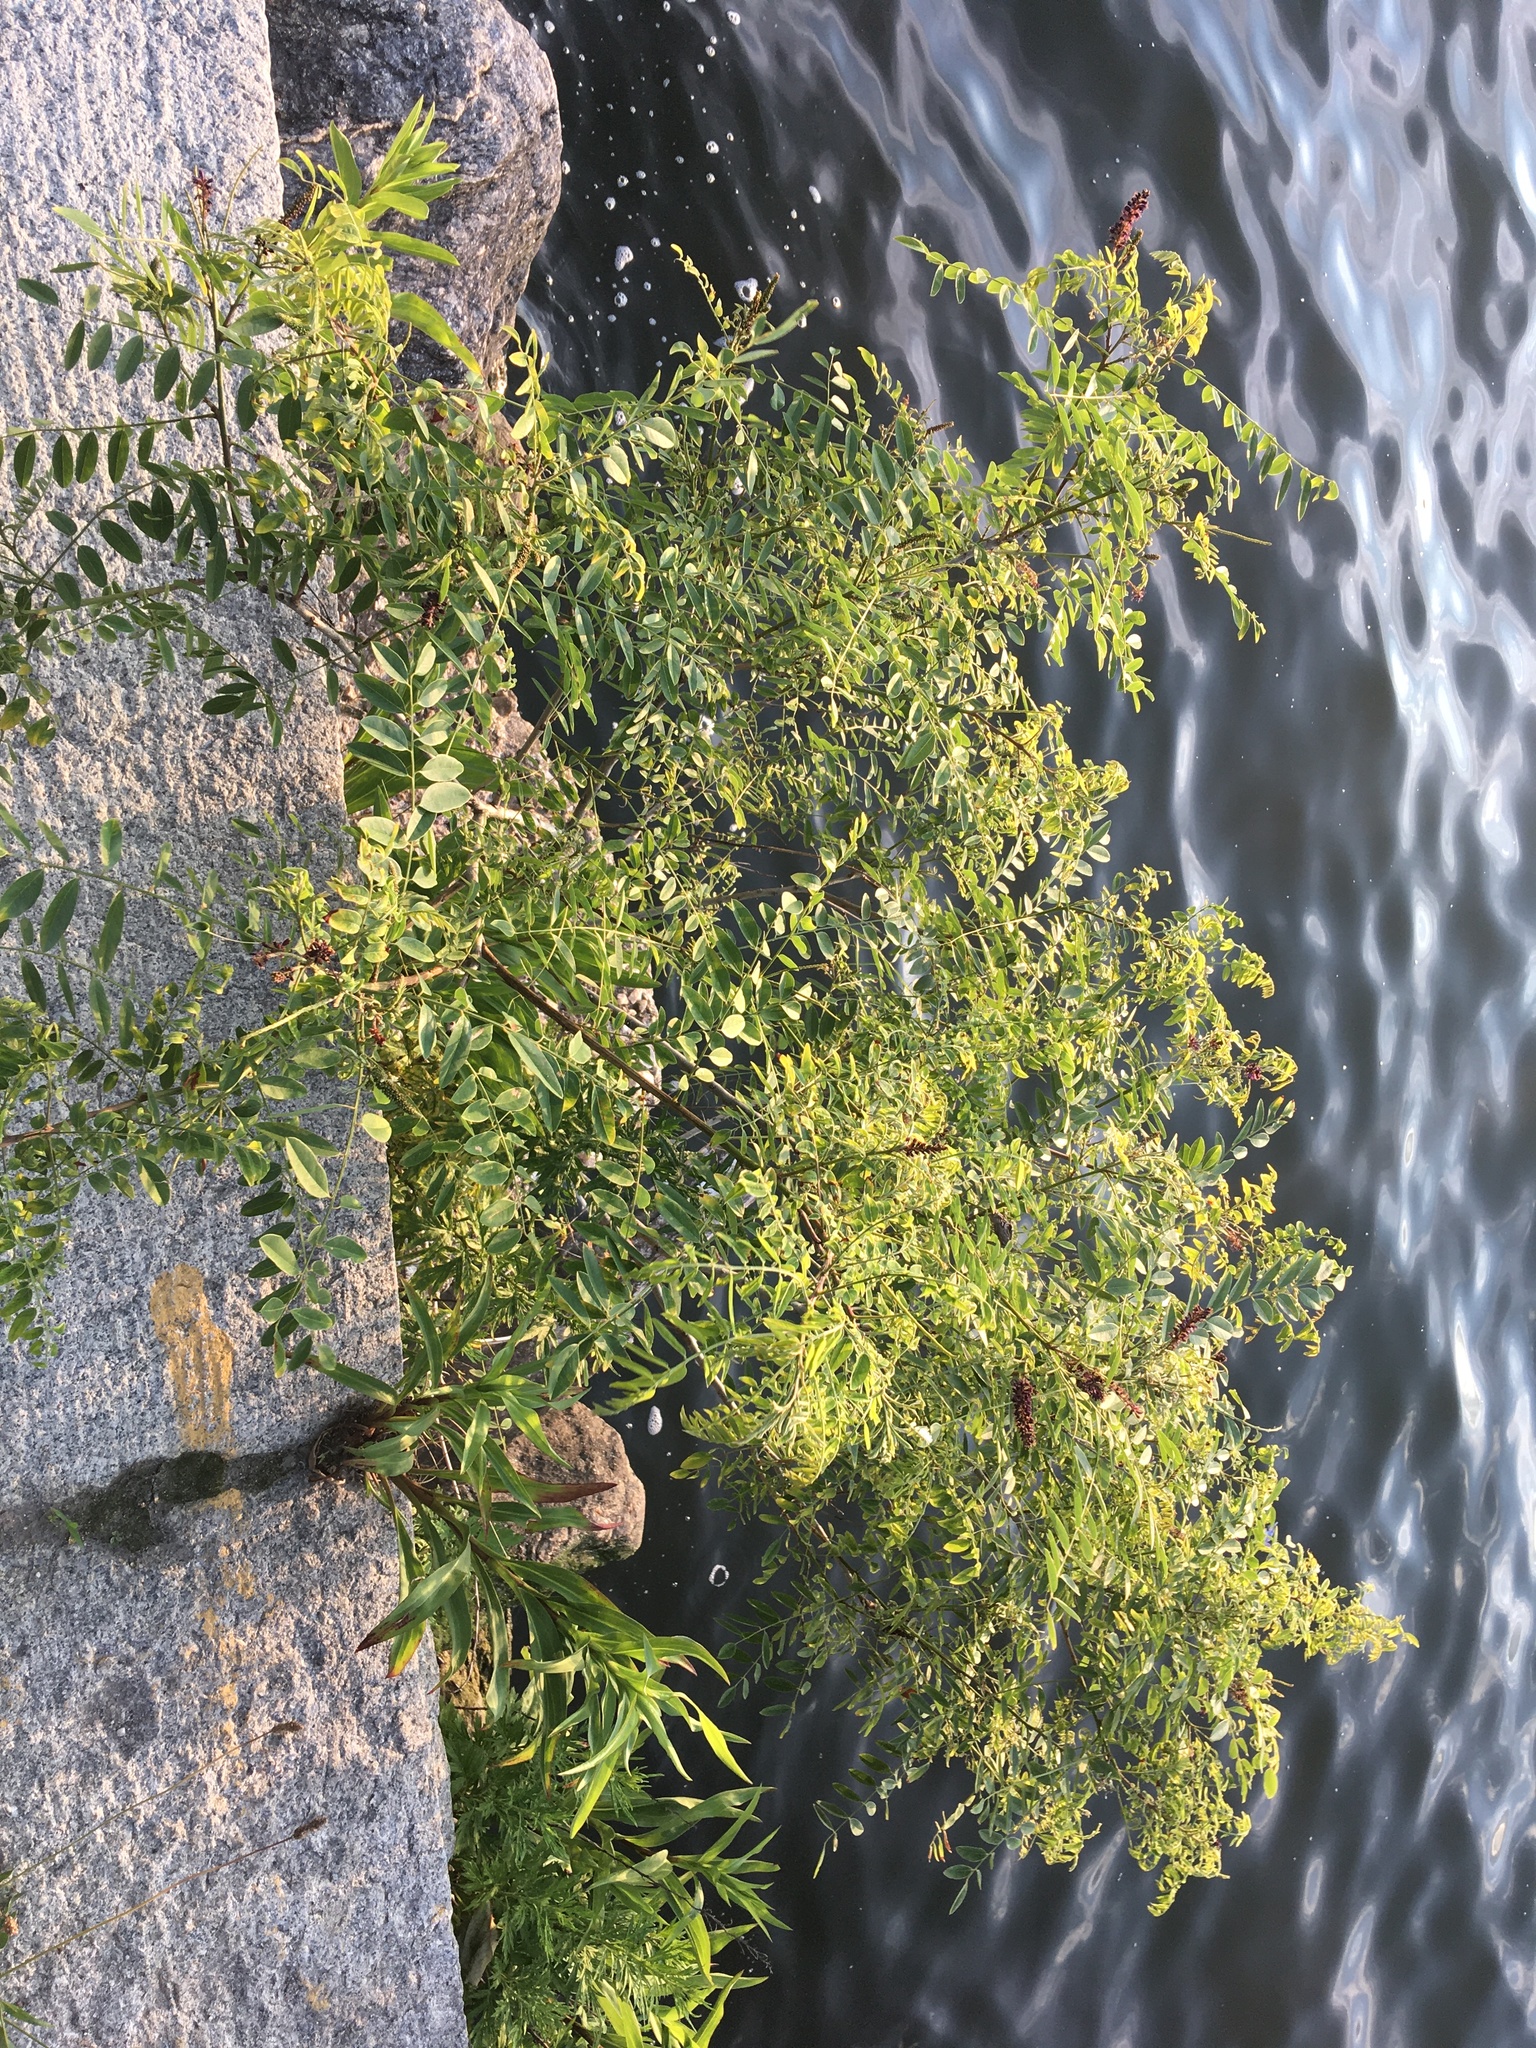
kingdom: Plantae
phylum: Tracheophyta
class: Magnoliopsida
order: Fabales
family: Fabaceae
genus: Amorpha
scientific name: Amorpha fruticosa
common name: False indigo
